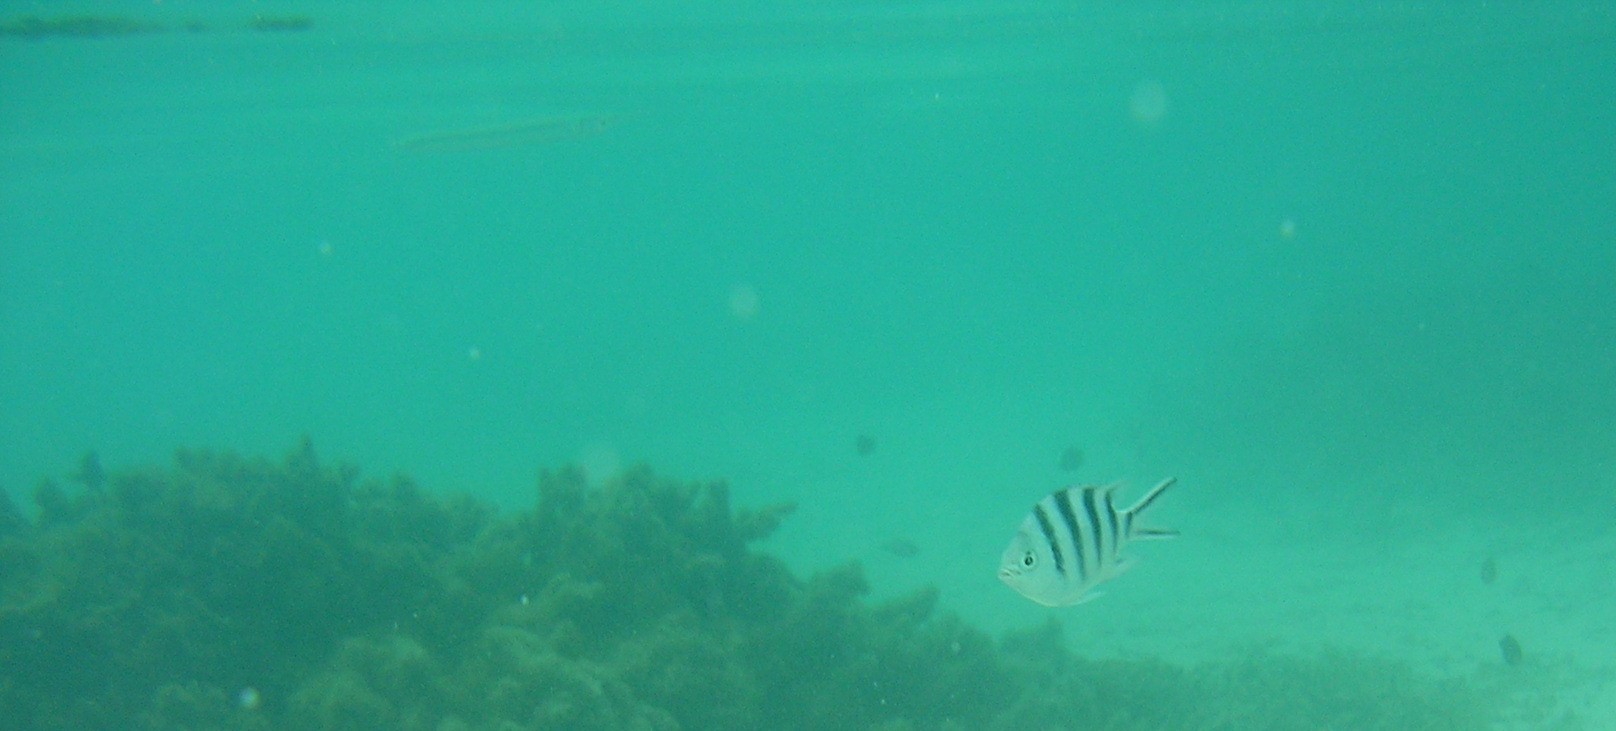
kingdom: Animalia
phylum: Chordata
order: Perciformes
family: Pomacentridae
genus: Abudefduf
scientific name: Abudefduf sexfasciatus
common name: Scissortail sergeant
